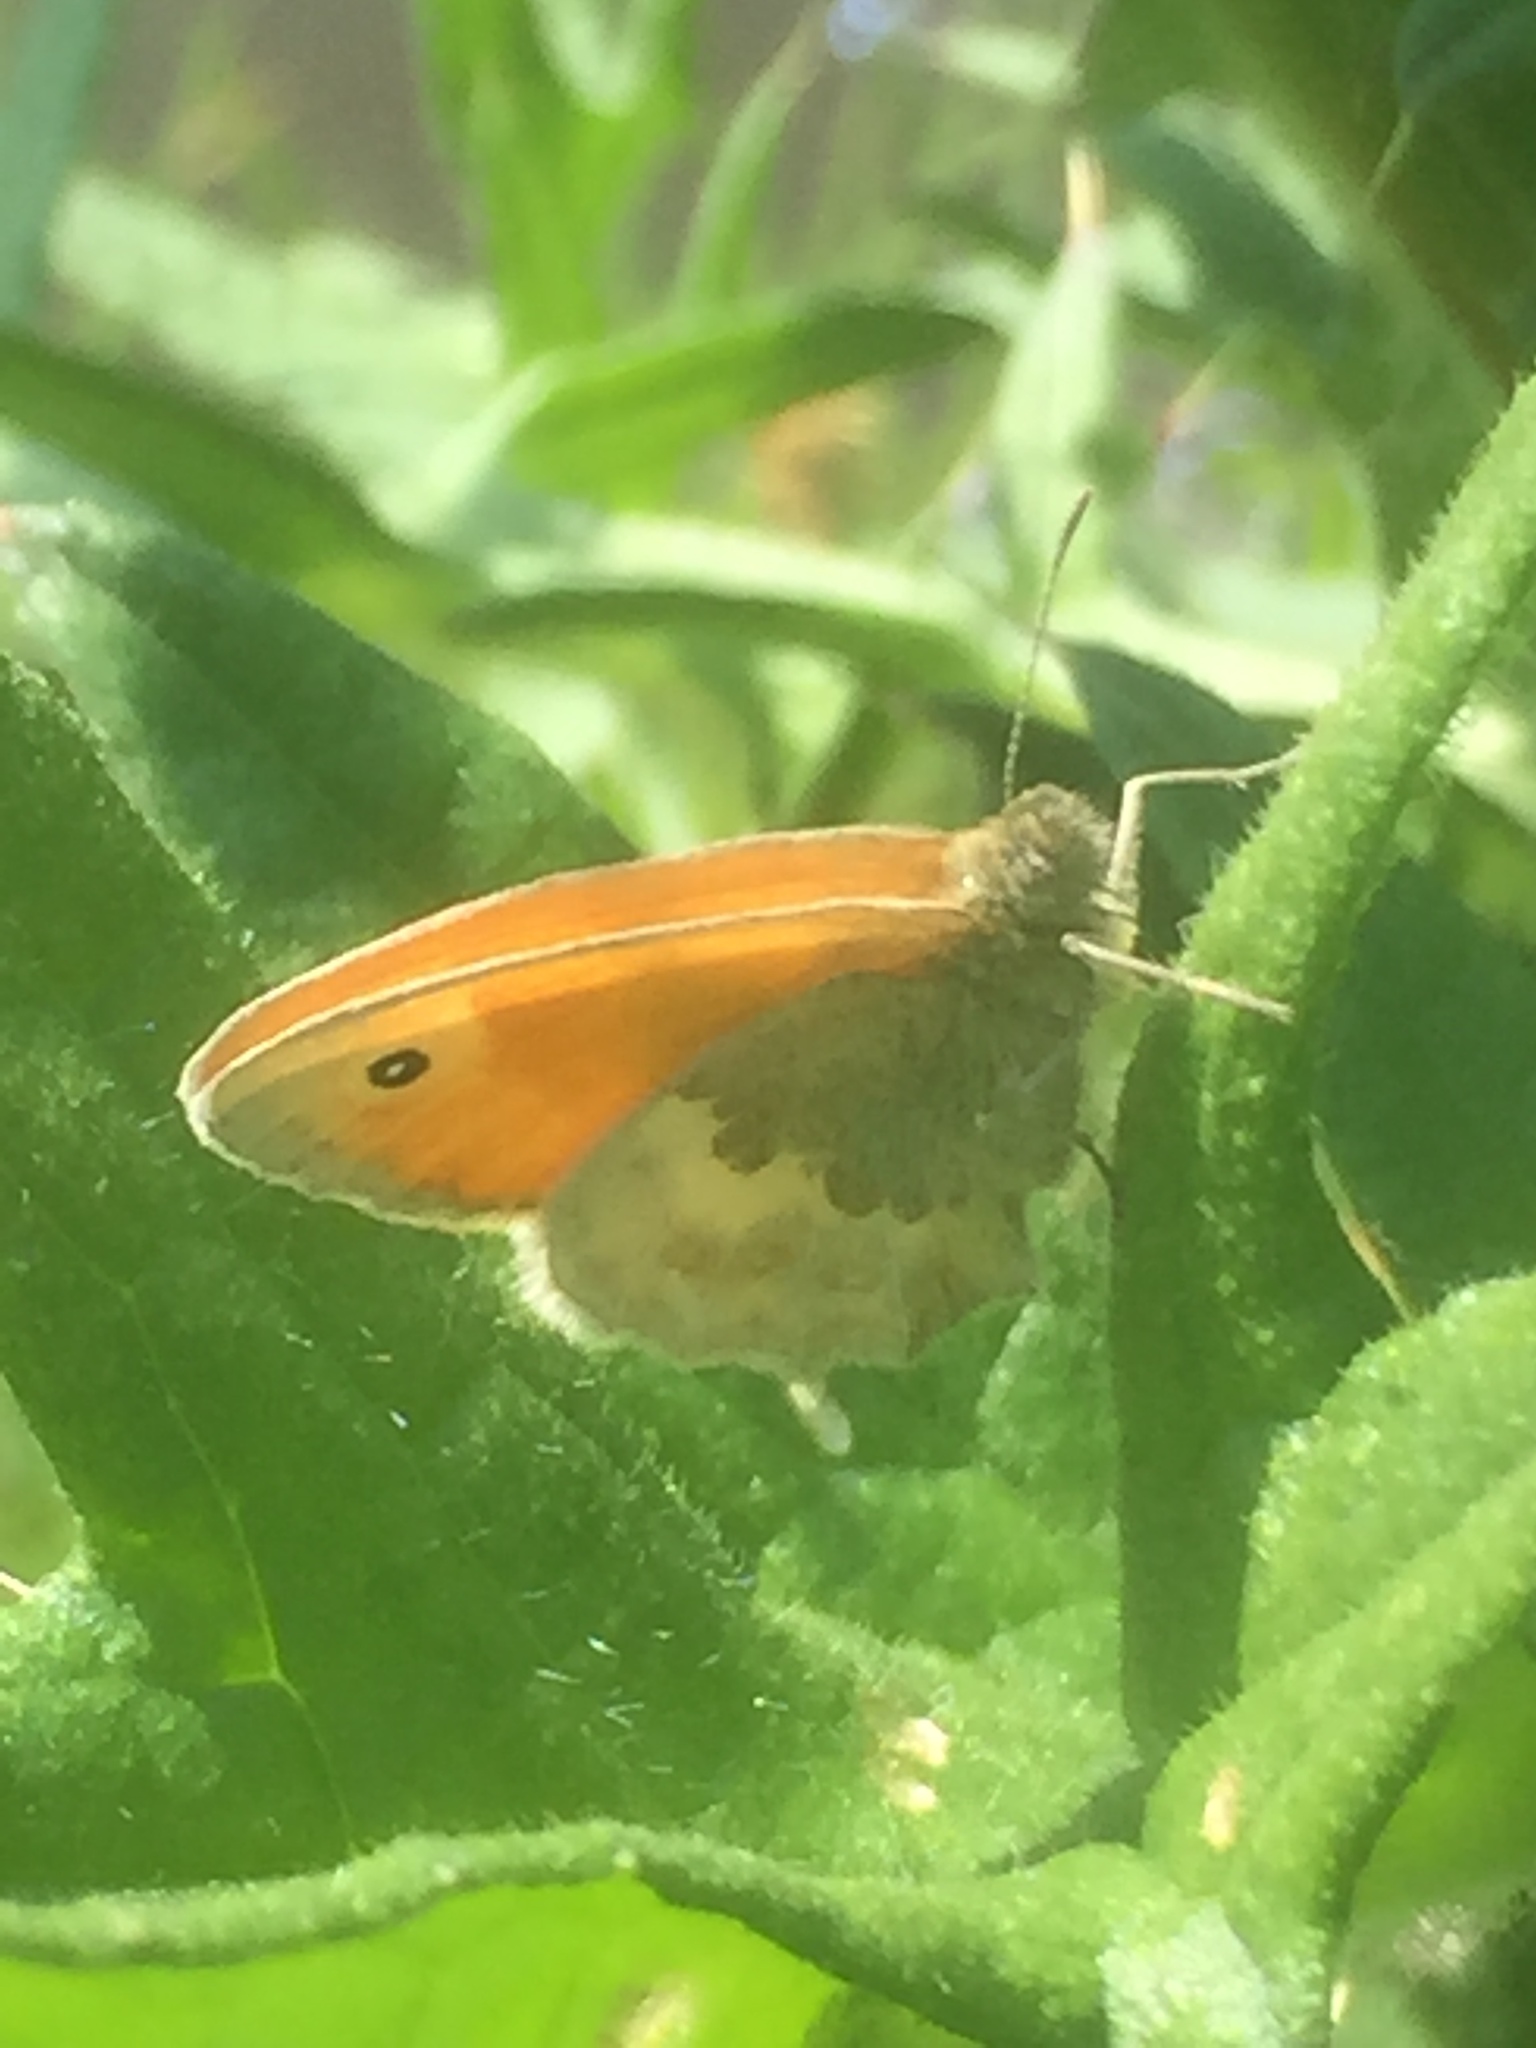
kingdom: Animalia
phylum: Arthropoda
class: Insecta
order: Lepidoptera
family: Nymphalidae
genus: Coenonympha
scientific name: Coenonympha pamphilus
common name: Small heath
